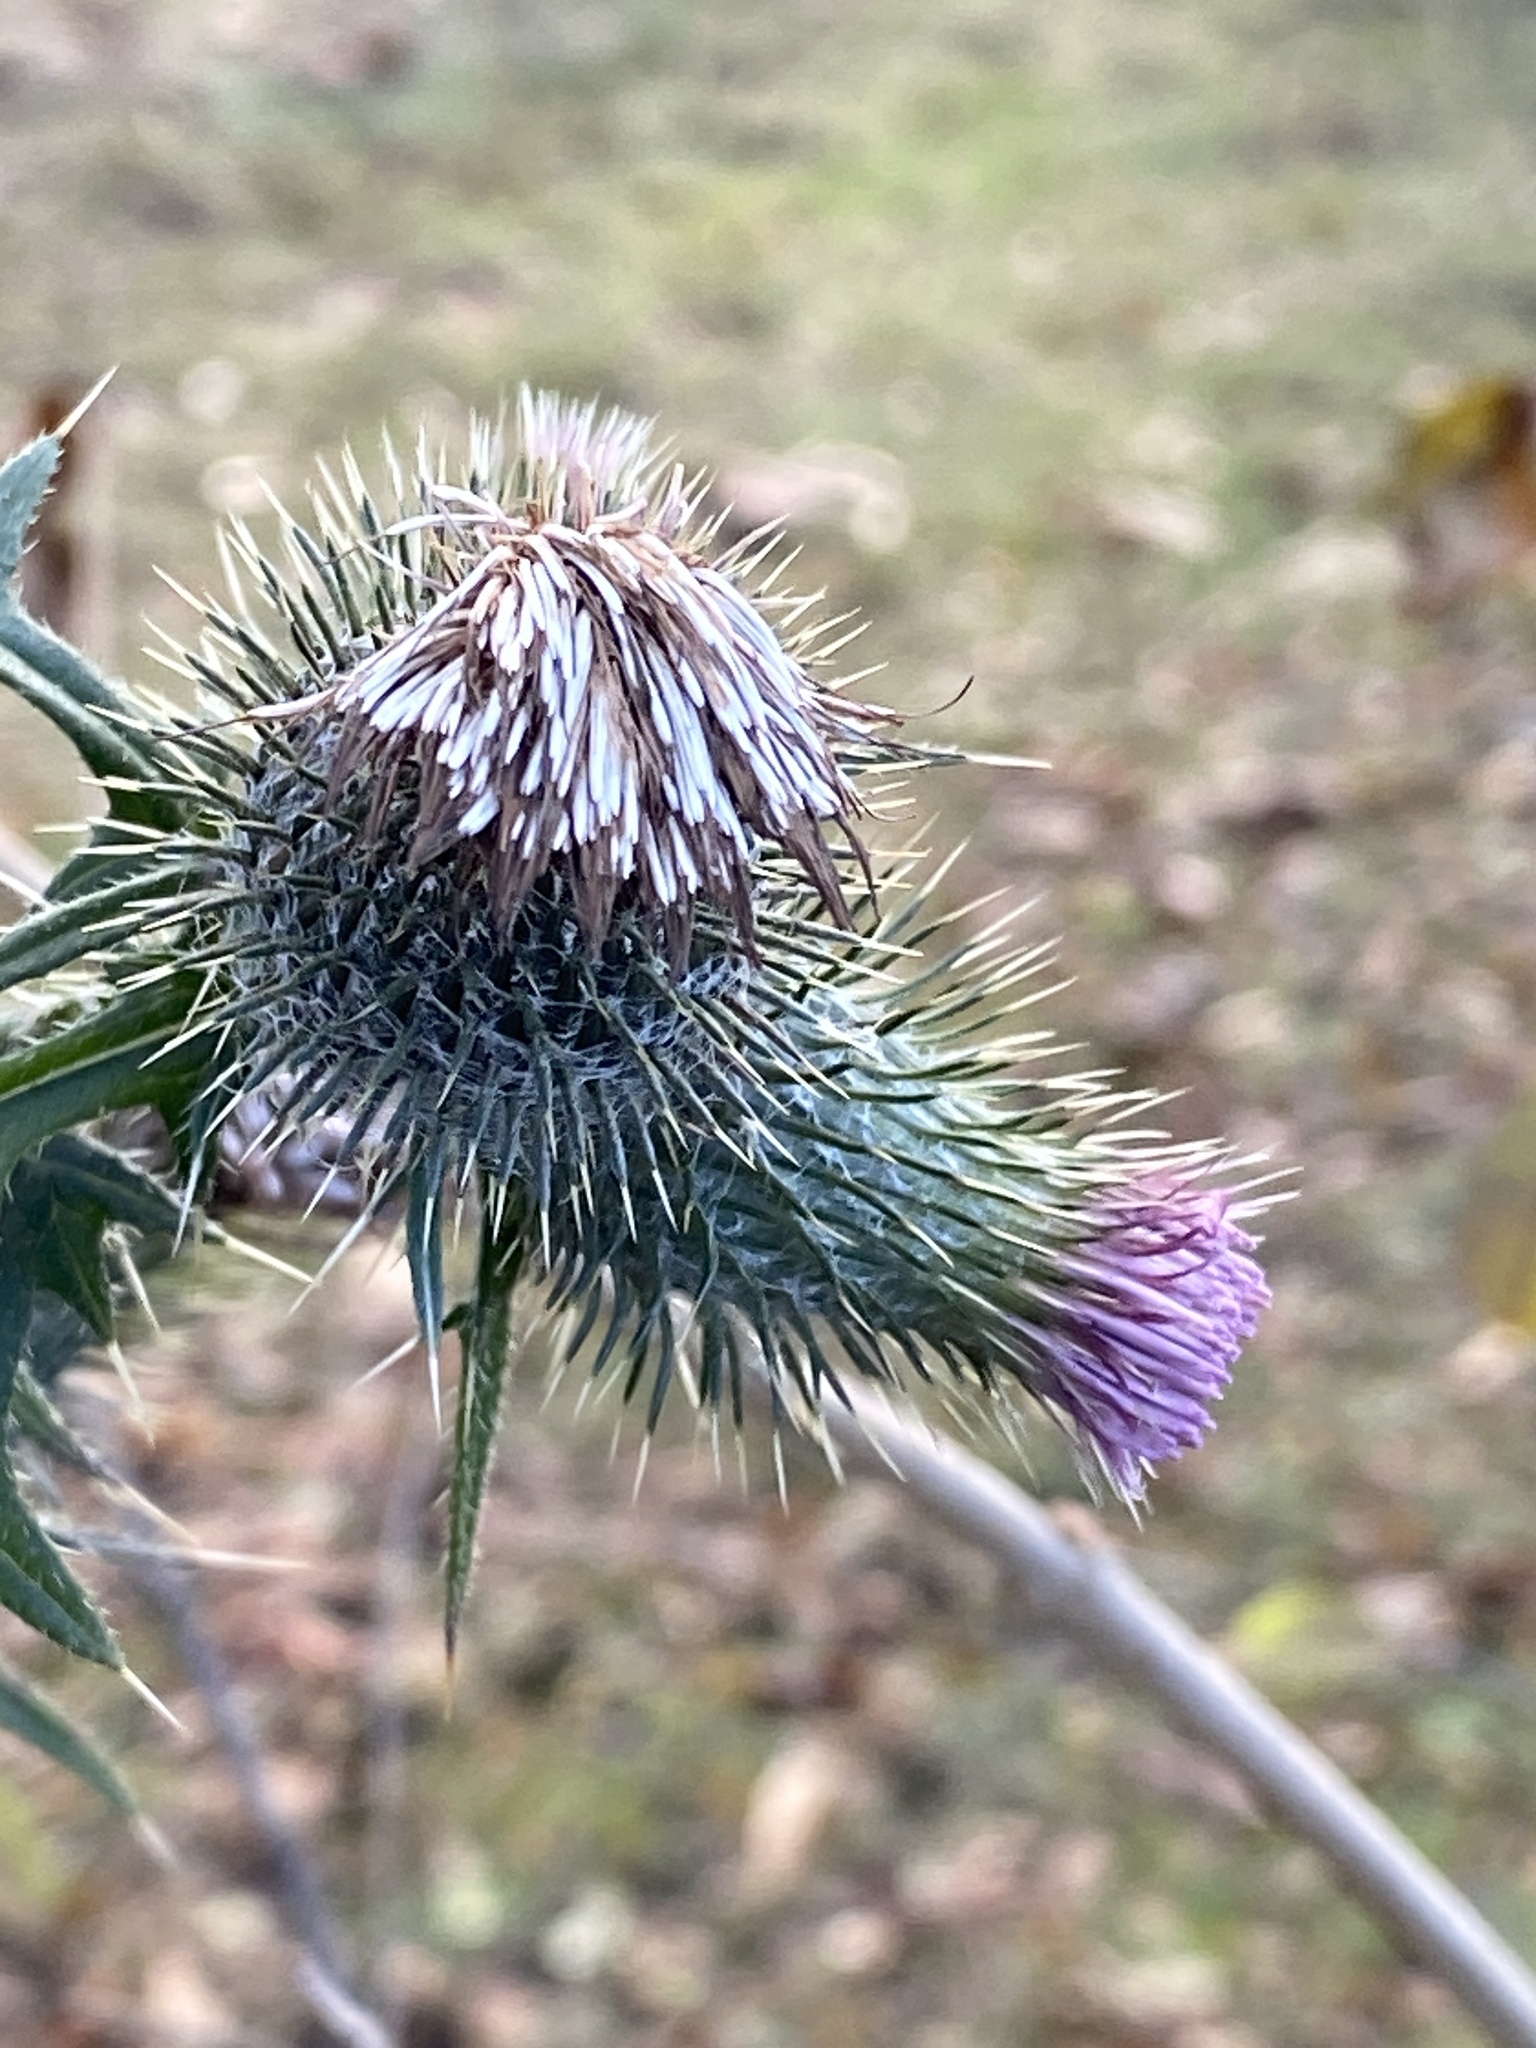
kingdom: Plantae
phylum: Tracheophyta
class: Magnoliopsida
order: Asterales
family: Asteraceae
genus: Cirsium
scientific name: Cirsium vulgare
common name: Bull thistle
